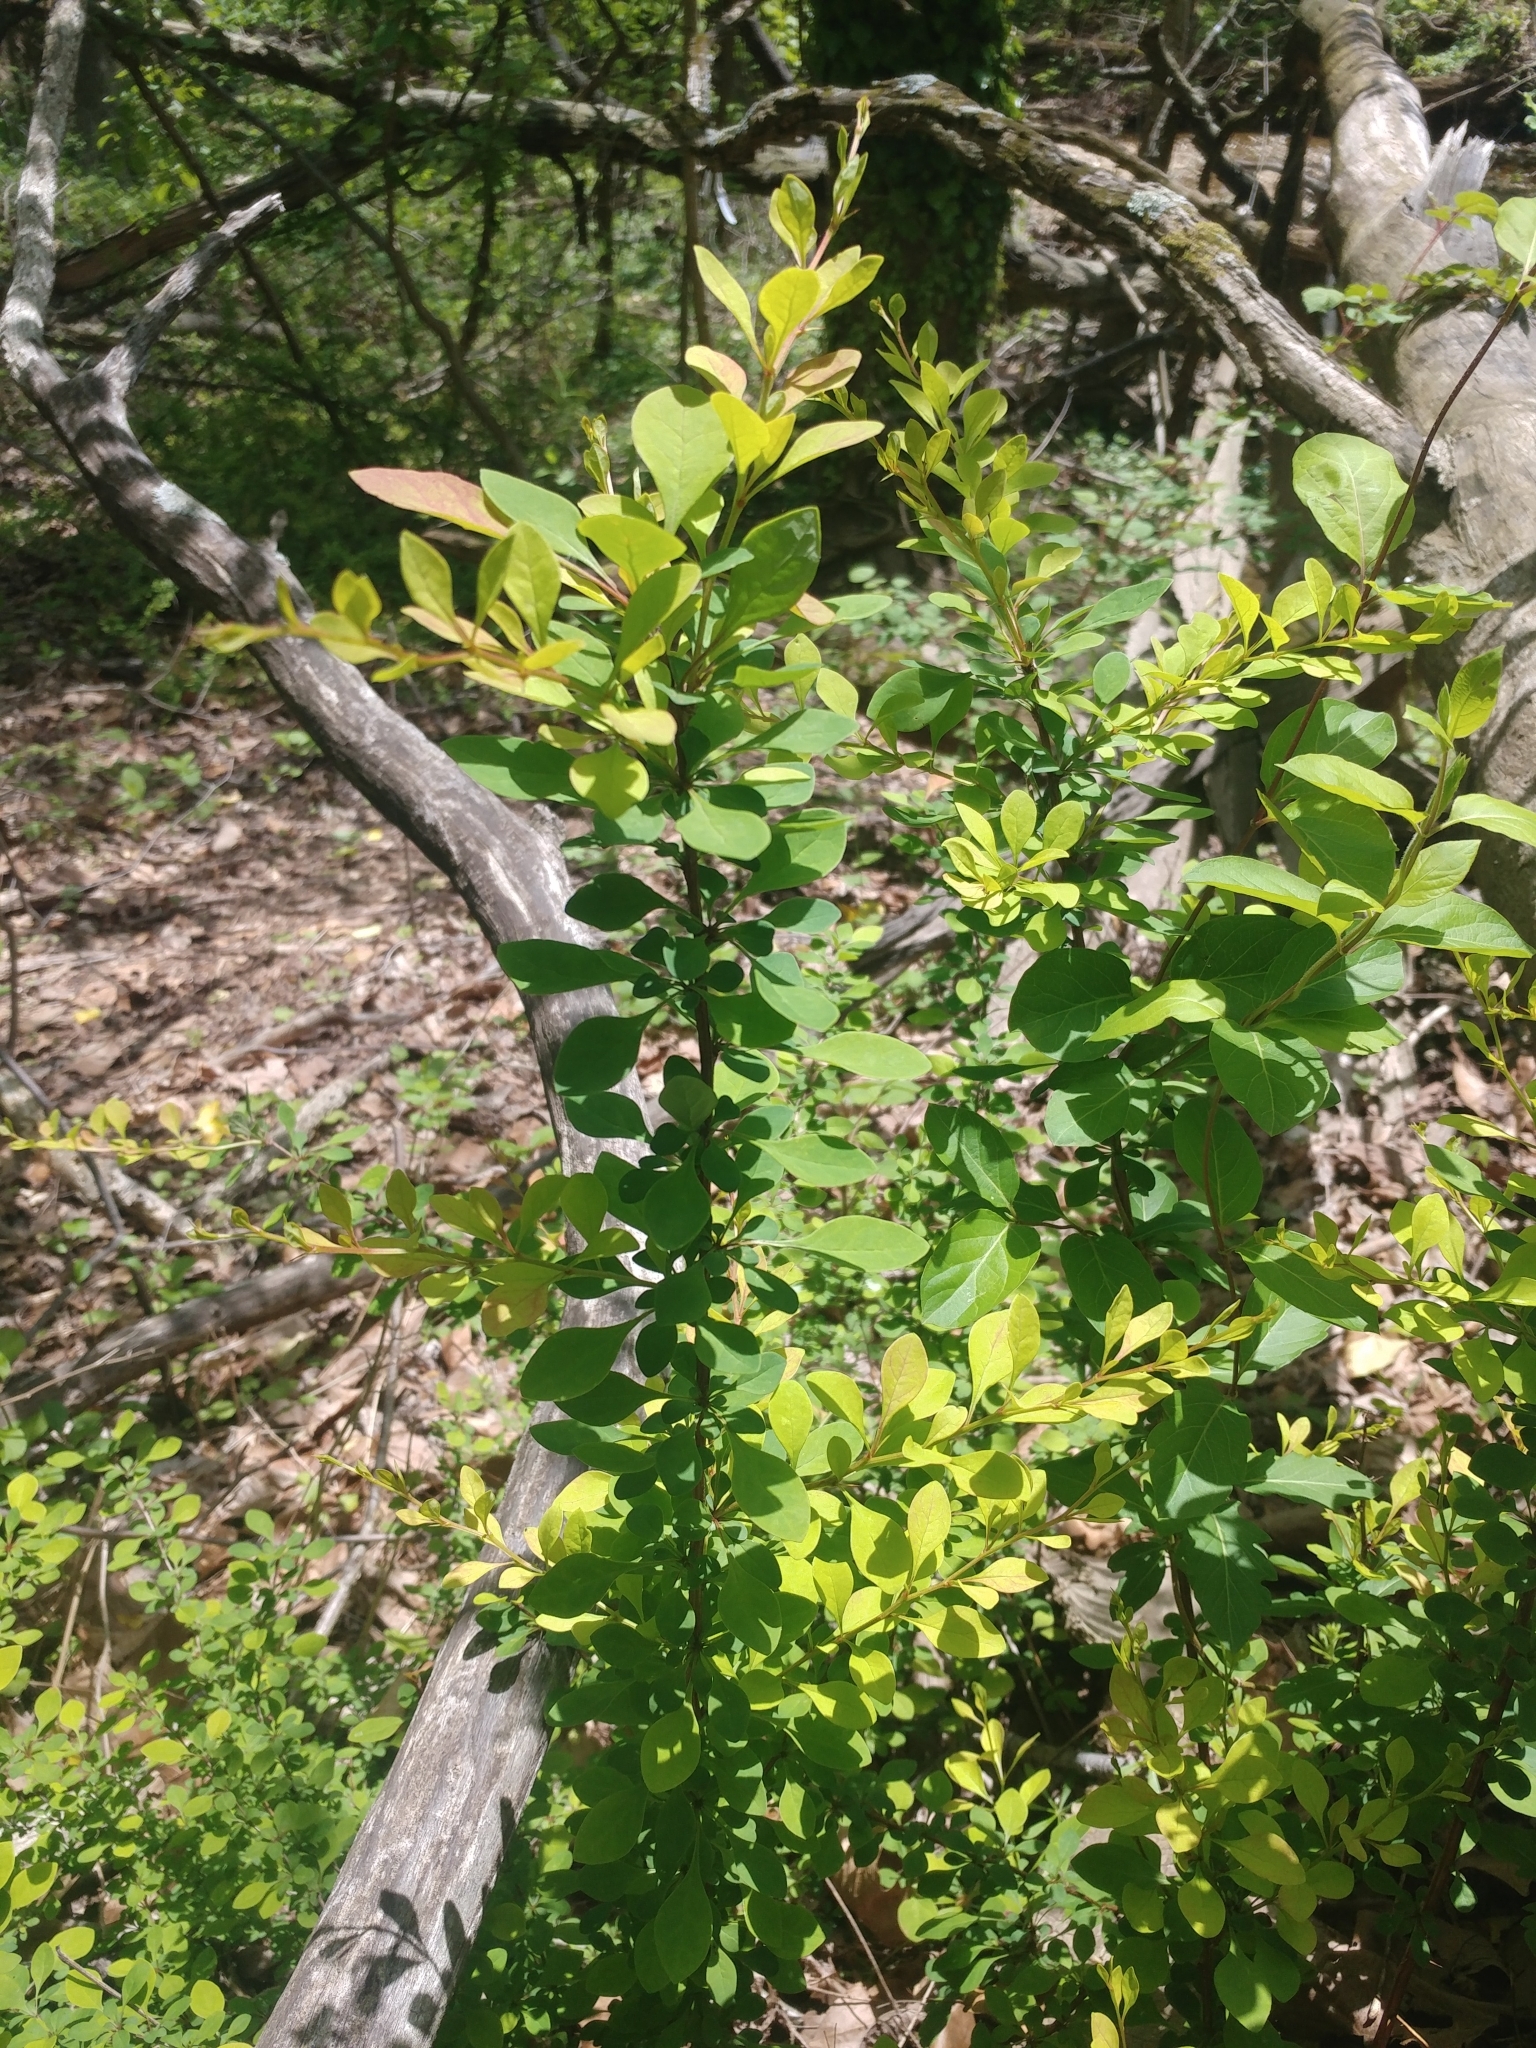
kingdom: Plantae
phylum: Tracheophyta
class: Magnoliopsida
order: Ranunculales
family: Berberidaceae
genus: Berberis
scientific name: Berberis thunbergii
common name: Japanese barberry
